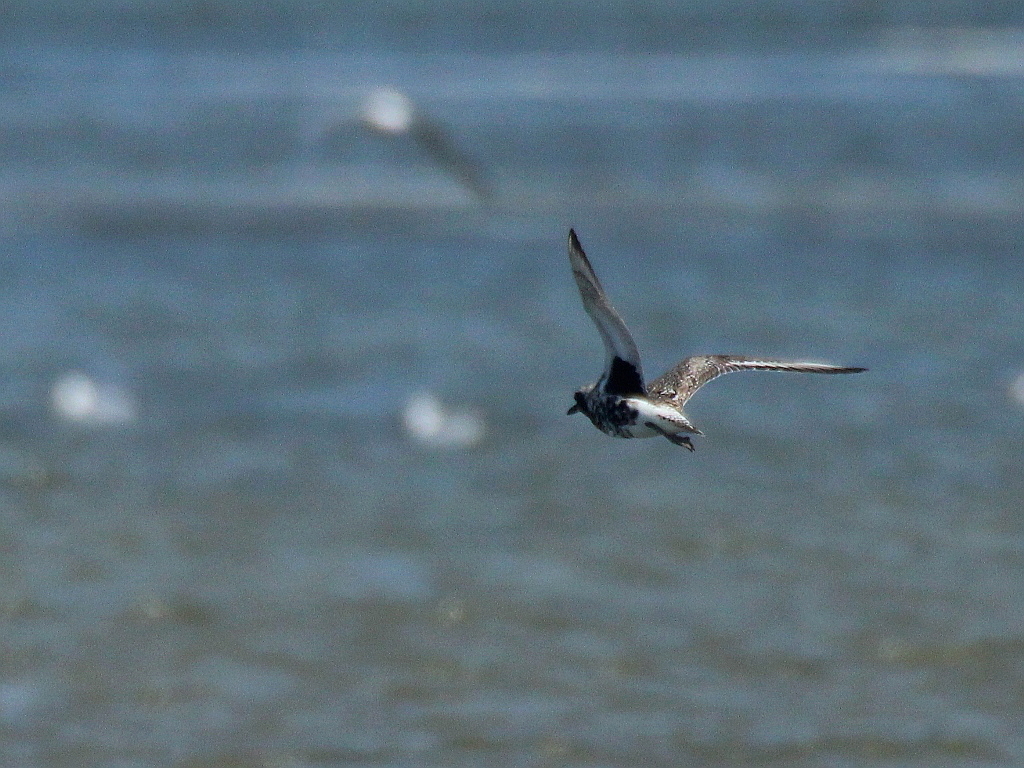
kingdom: Animalia
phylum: Chordata
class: Aves
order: Charadriiformes
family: Charadriidae
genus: Pluvialis
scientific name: Pluvialis squatarola
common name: Grey plover
